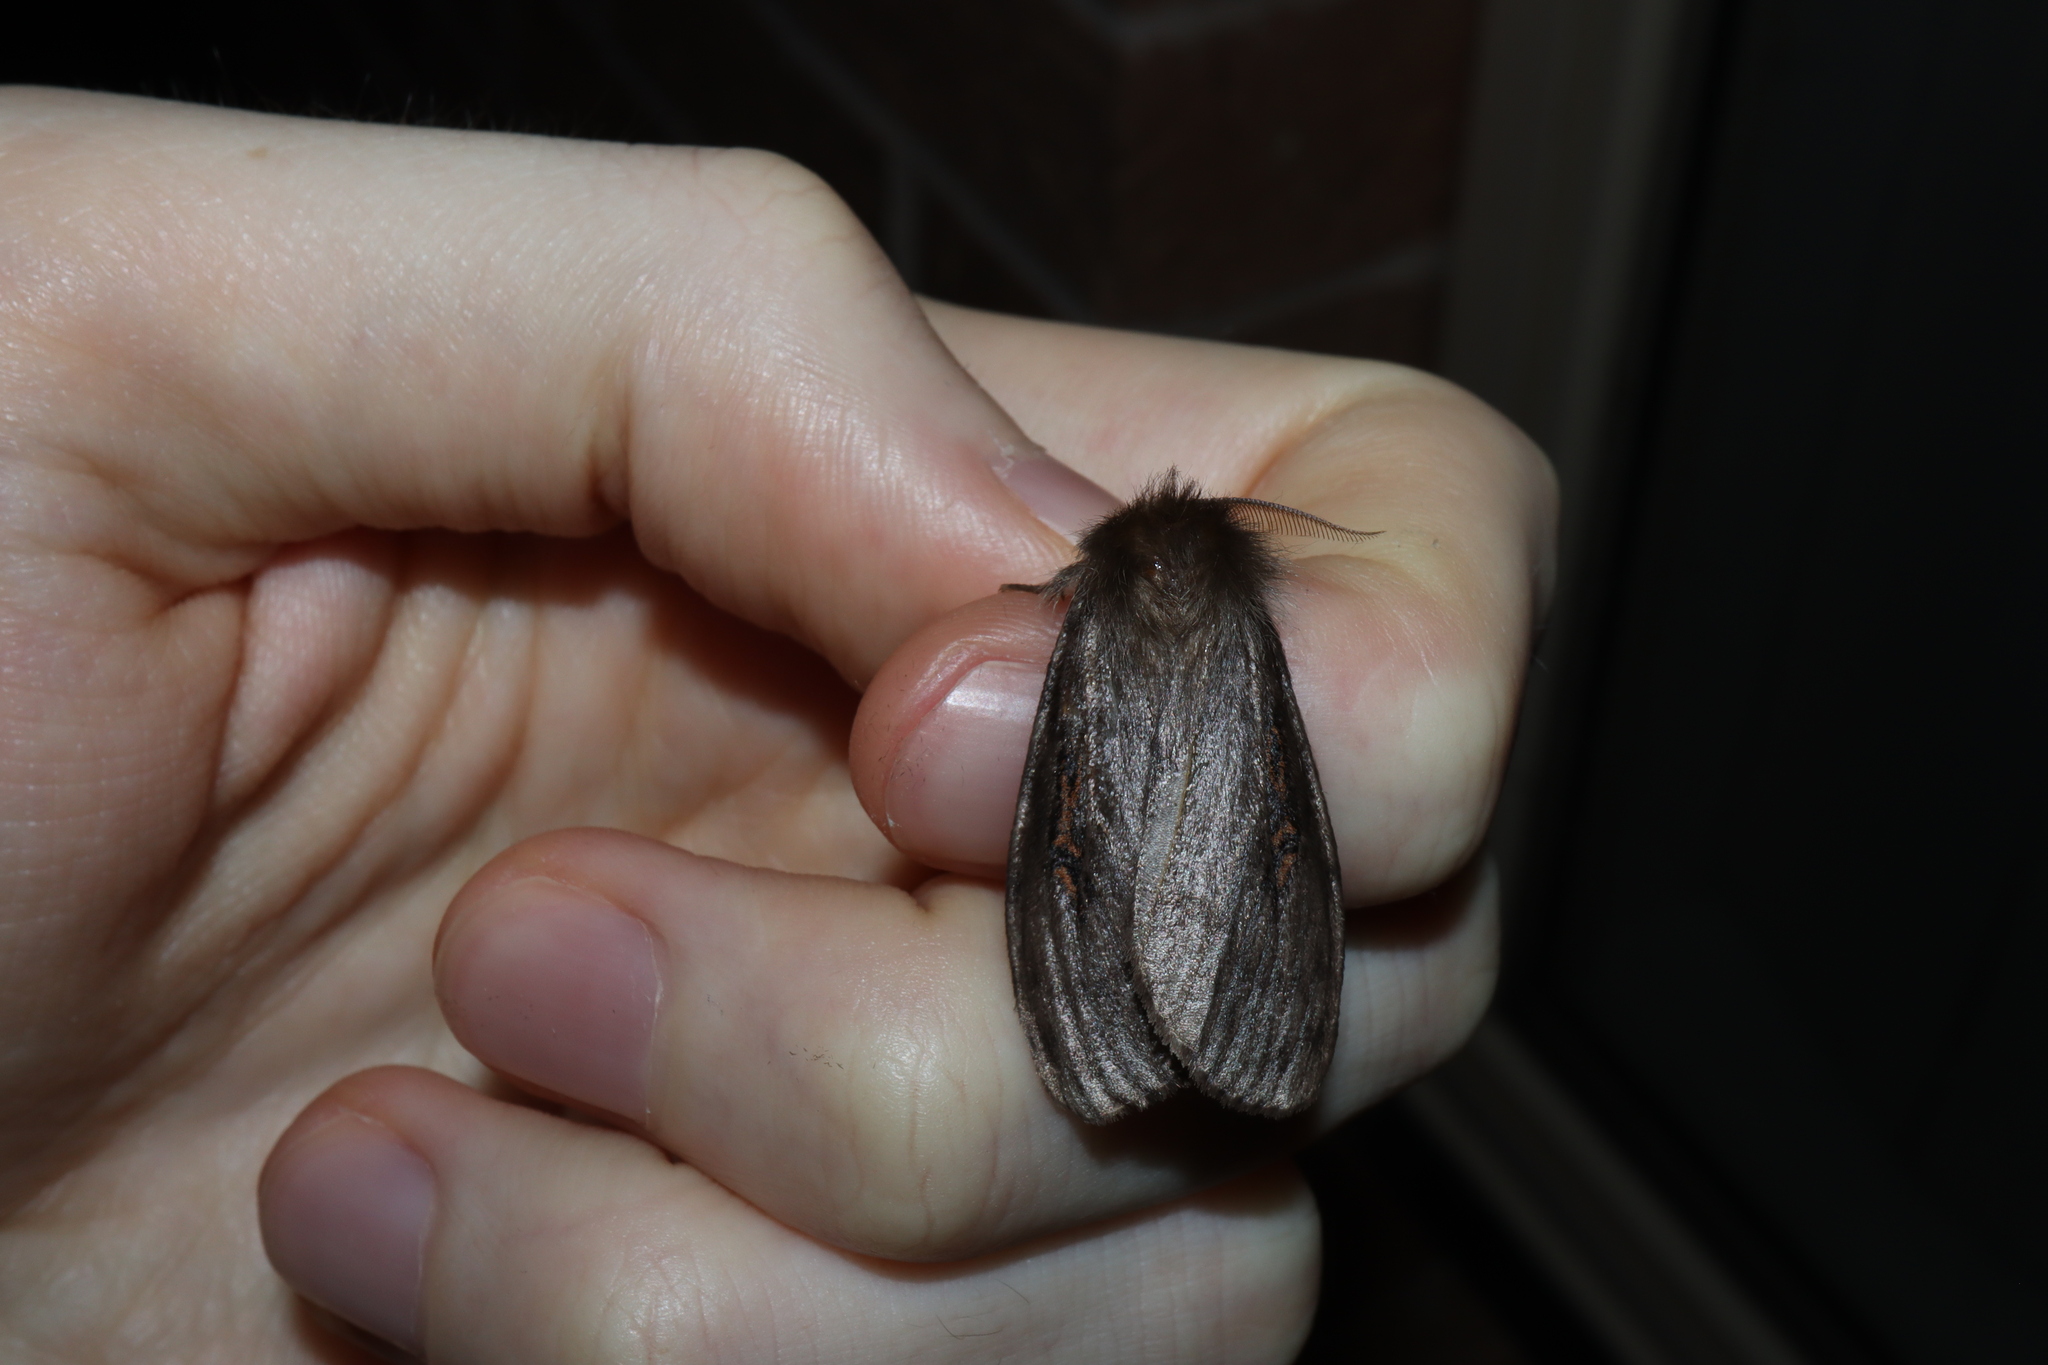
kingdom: Animalia
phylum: Arthropoda
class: Insecta
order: Lepidoptera
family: Erebidae
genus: Leptocneria
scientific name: Leptocneria reducta
